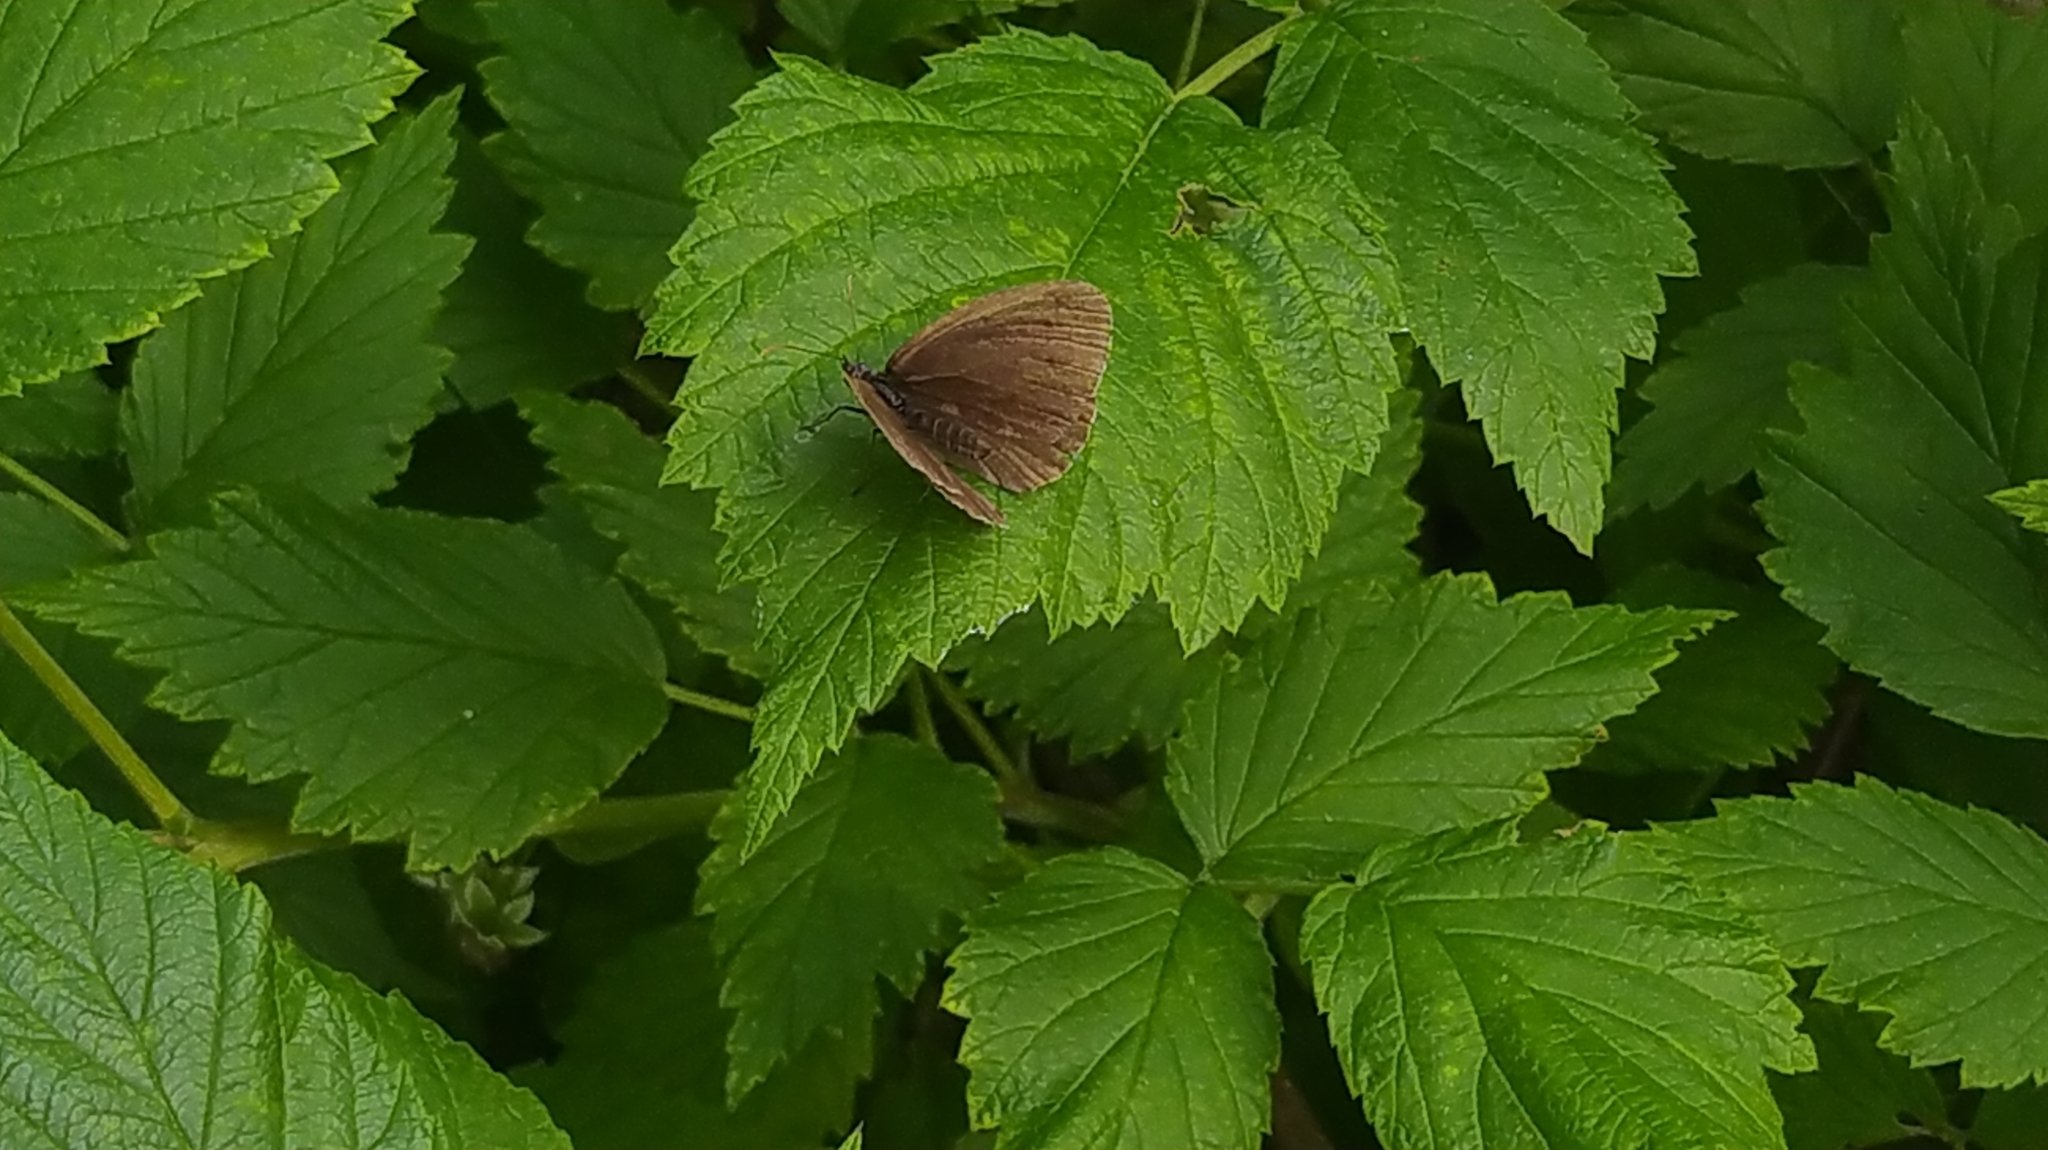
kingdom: Animalia
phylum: Arthropoda
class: Insecta
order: Lepidoptera
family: Nymphalidae
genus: Aphantopus
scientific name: Aphantopus hyperantus
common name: Ringlet
